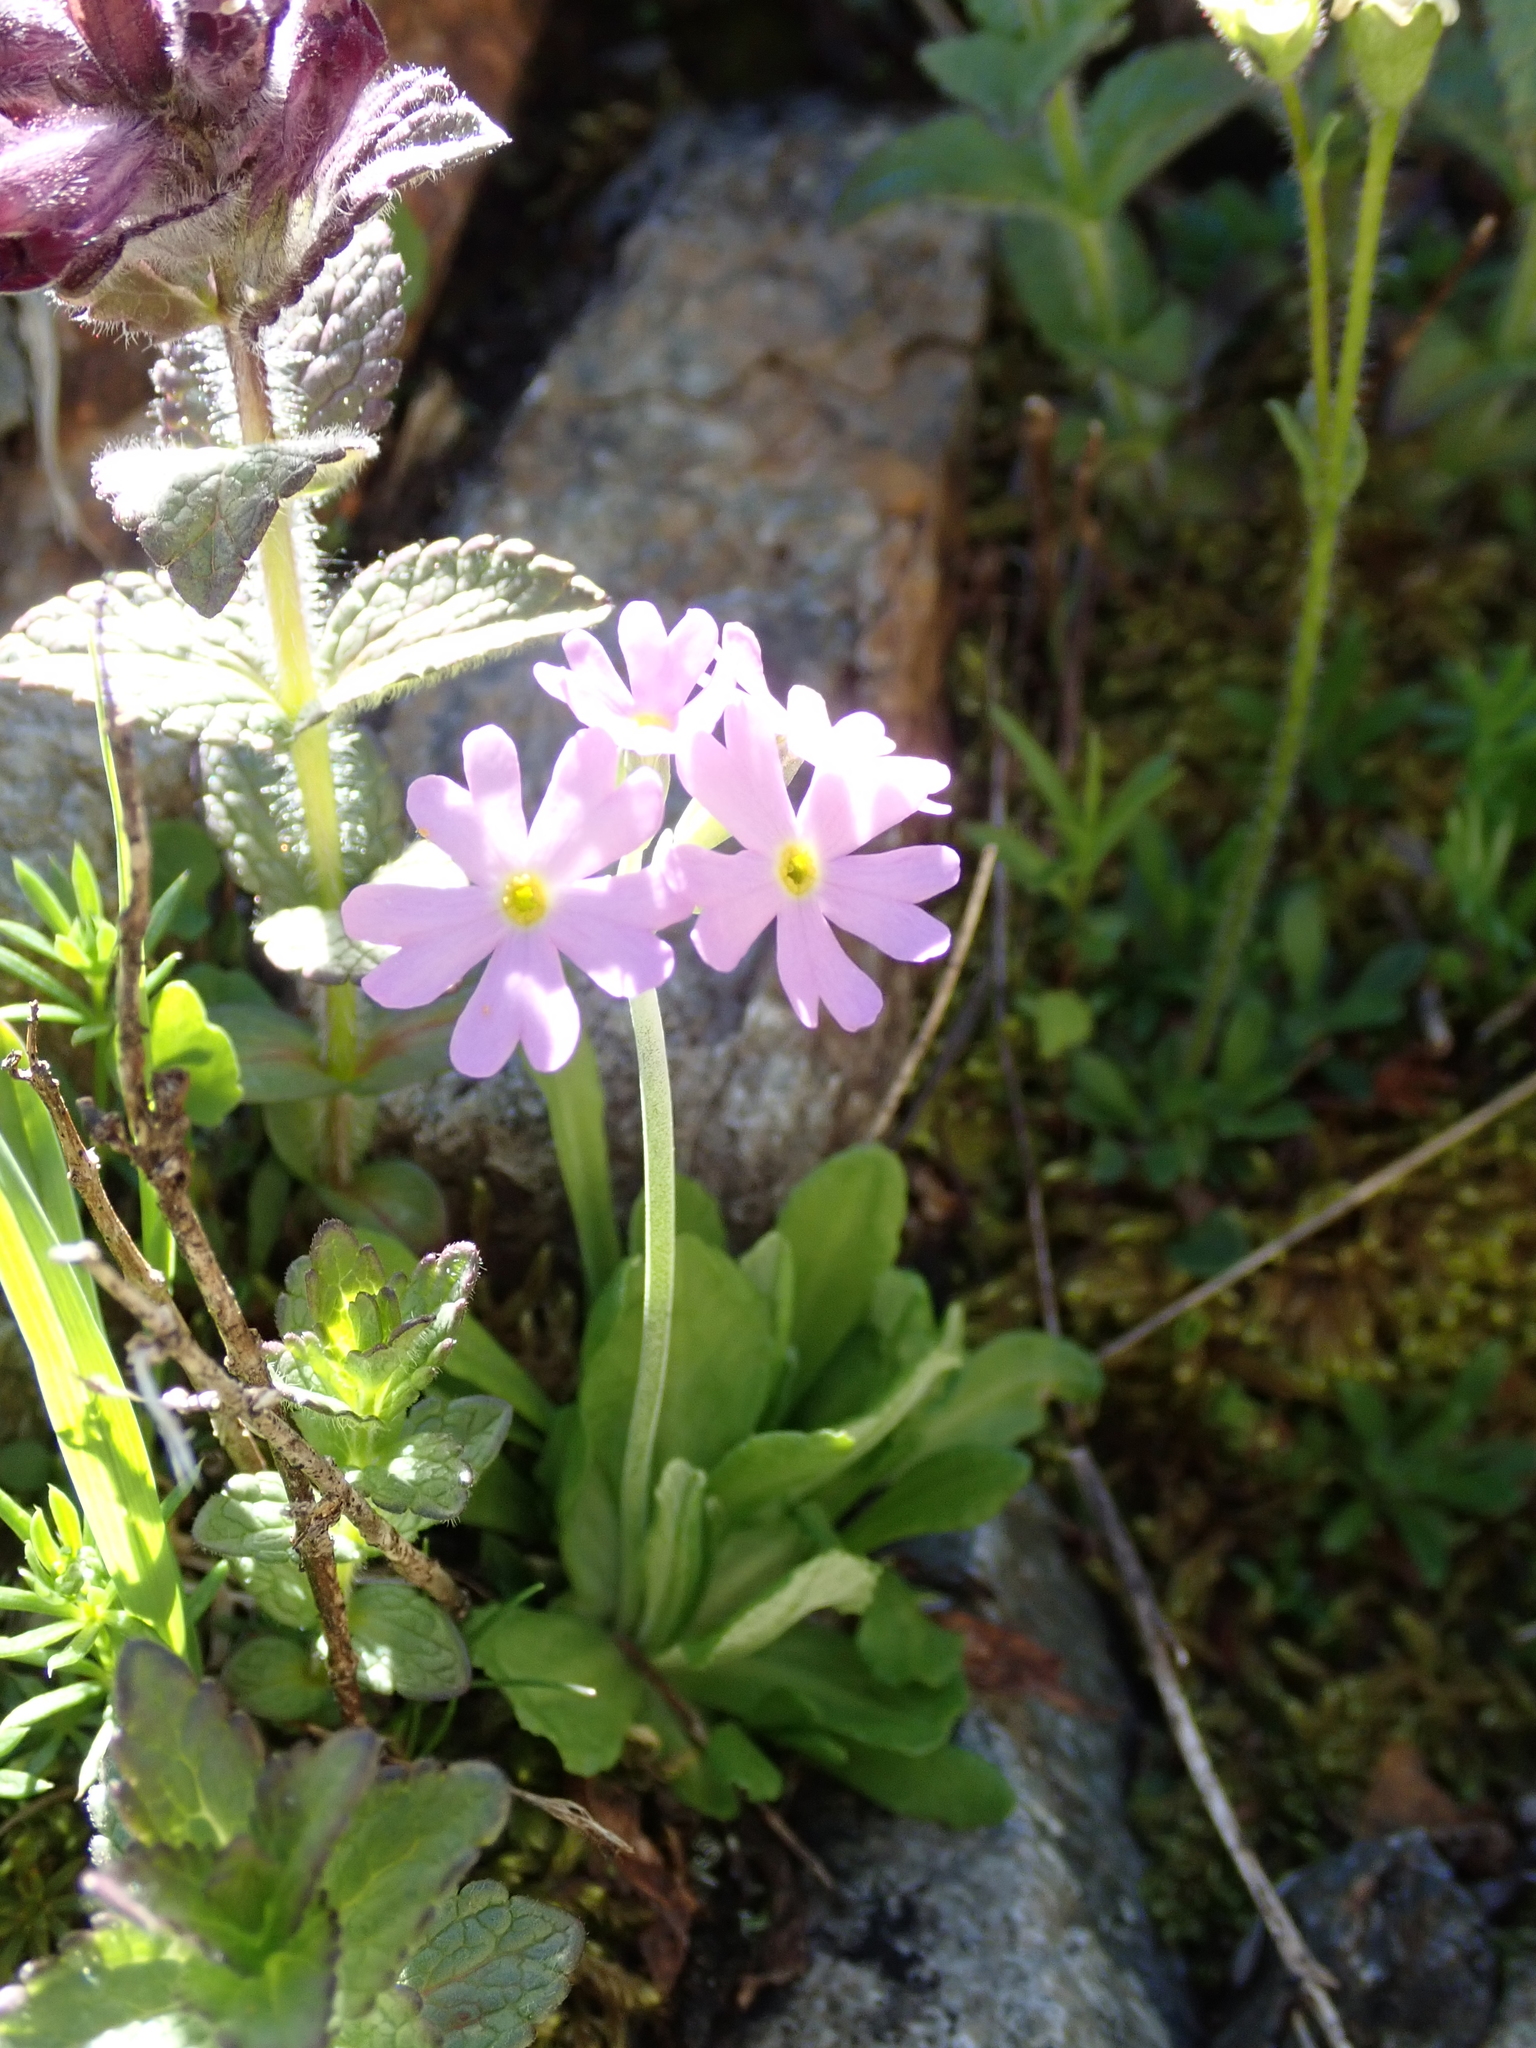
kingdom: Plantae
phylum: Tracheophyta
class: Magnoliopsida
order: Ericales
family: Primulaceae
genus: Primula
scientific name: Primula farinosa
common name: Bird's-eye primrose
